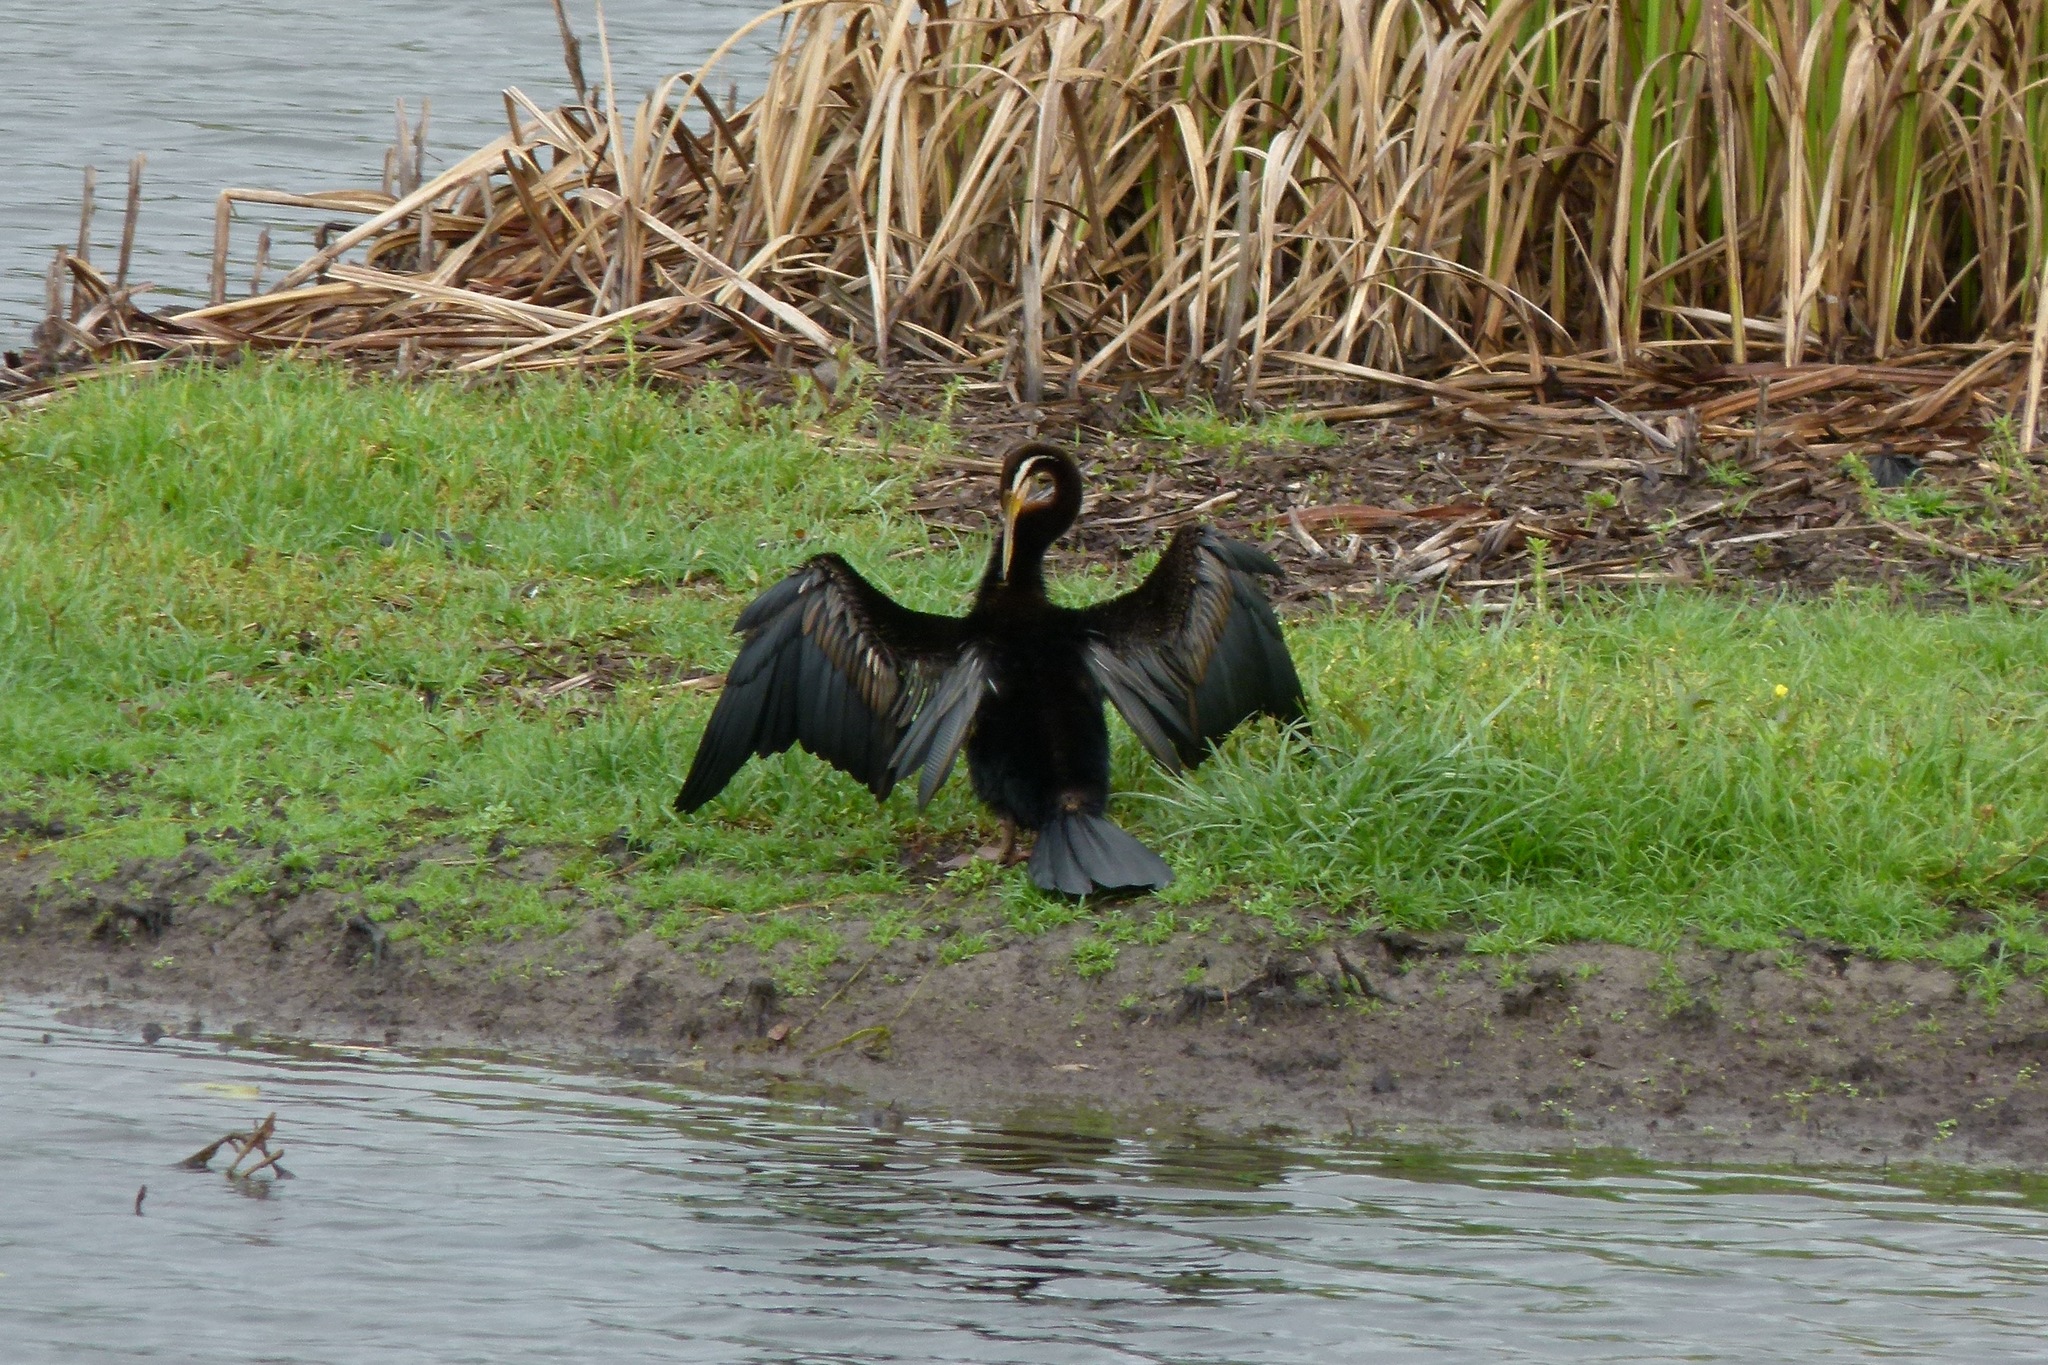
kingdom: Animalia
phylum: Chordata
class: Aves
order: Suliformes
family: Anhingidae
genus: Anhinga
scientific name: Anhinga novaehollandiae
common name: Australasian darter
